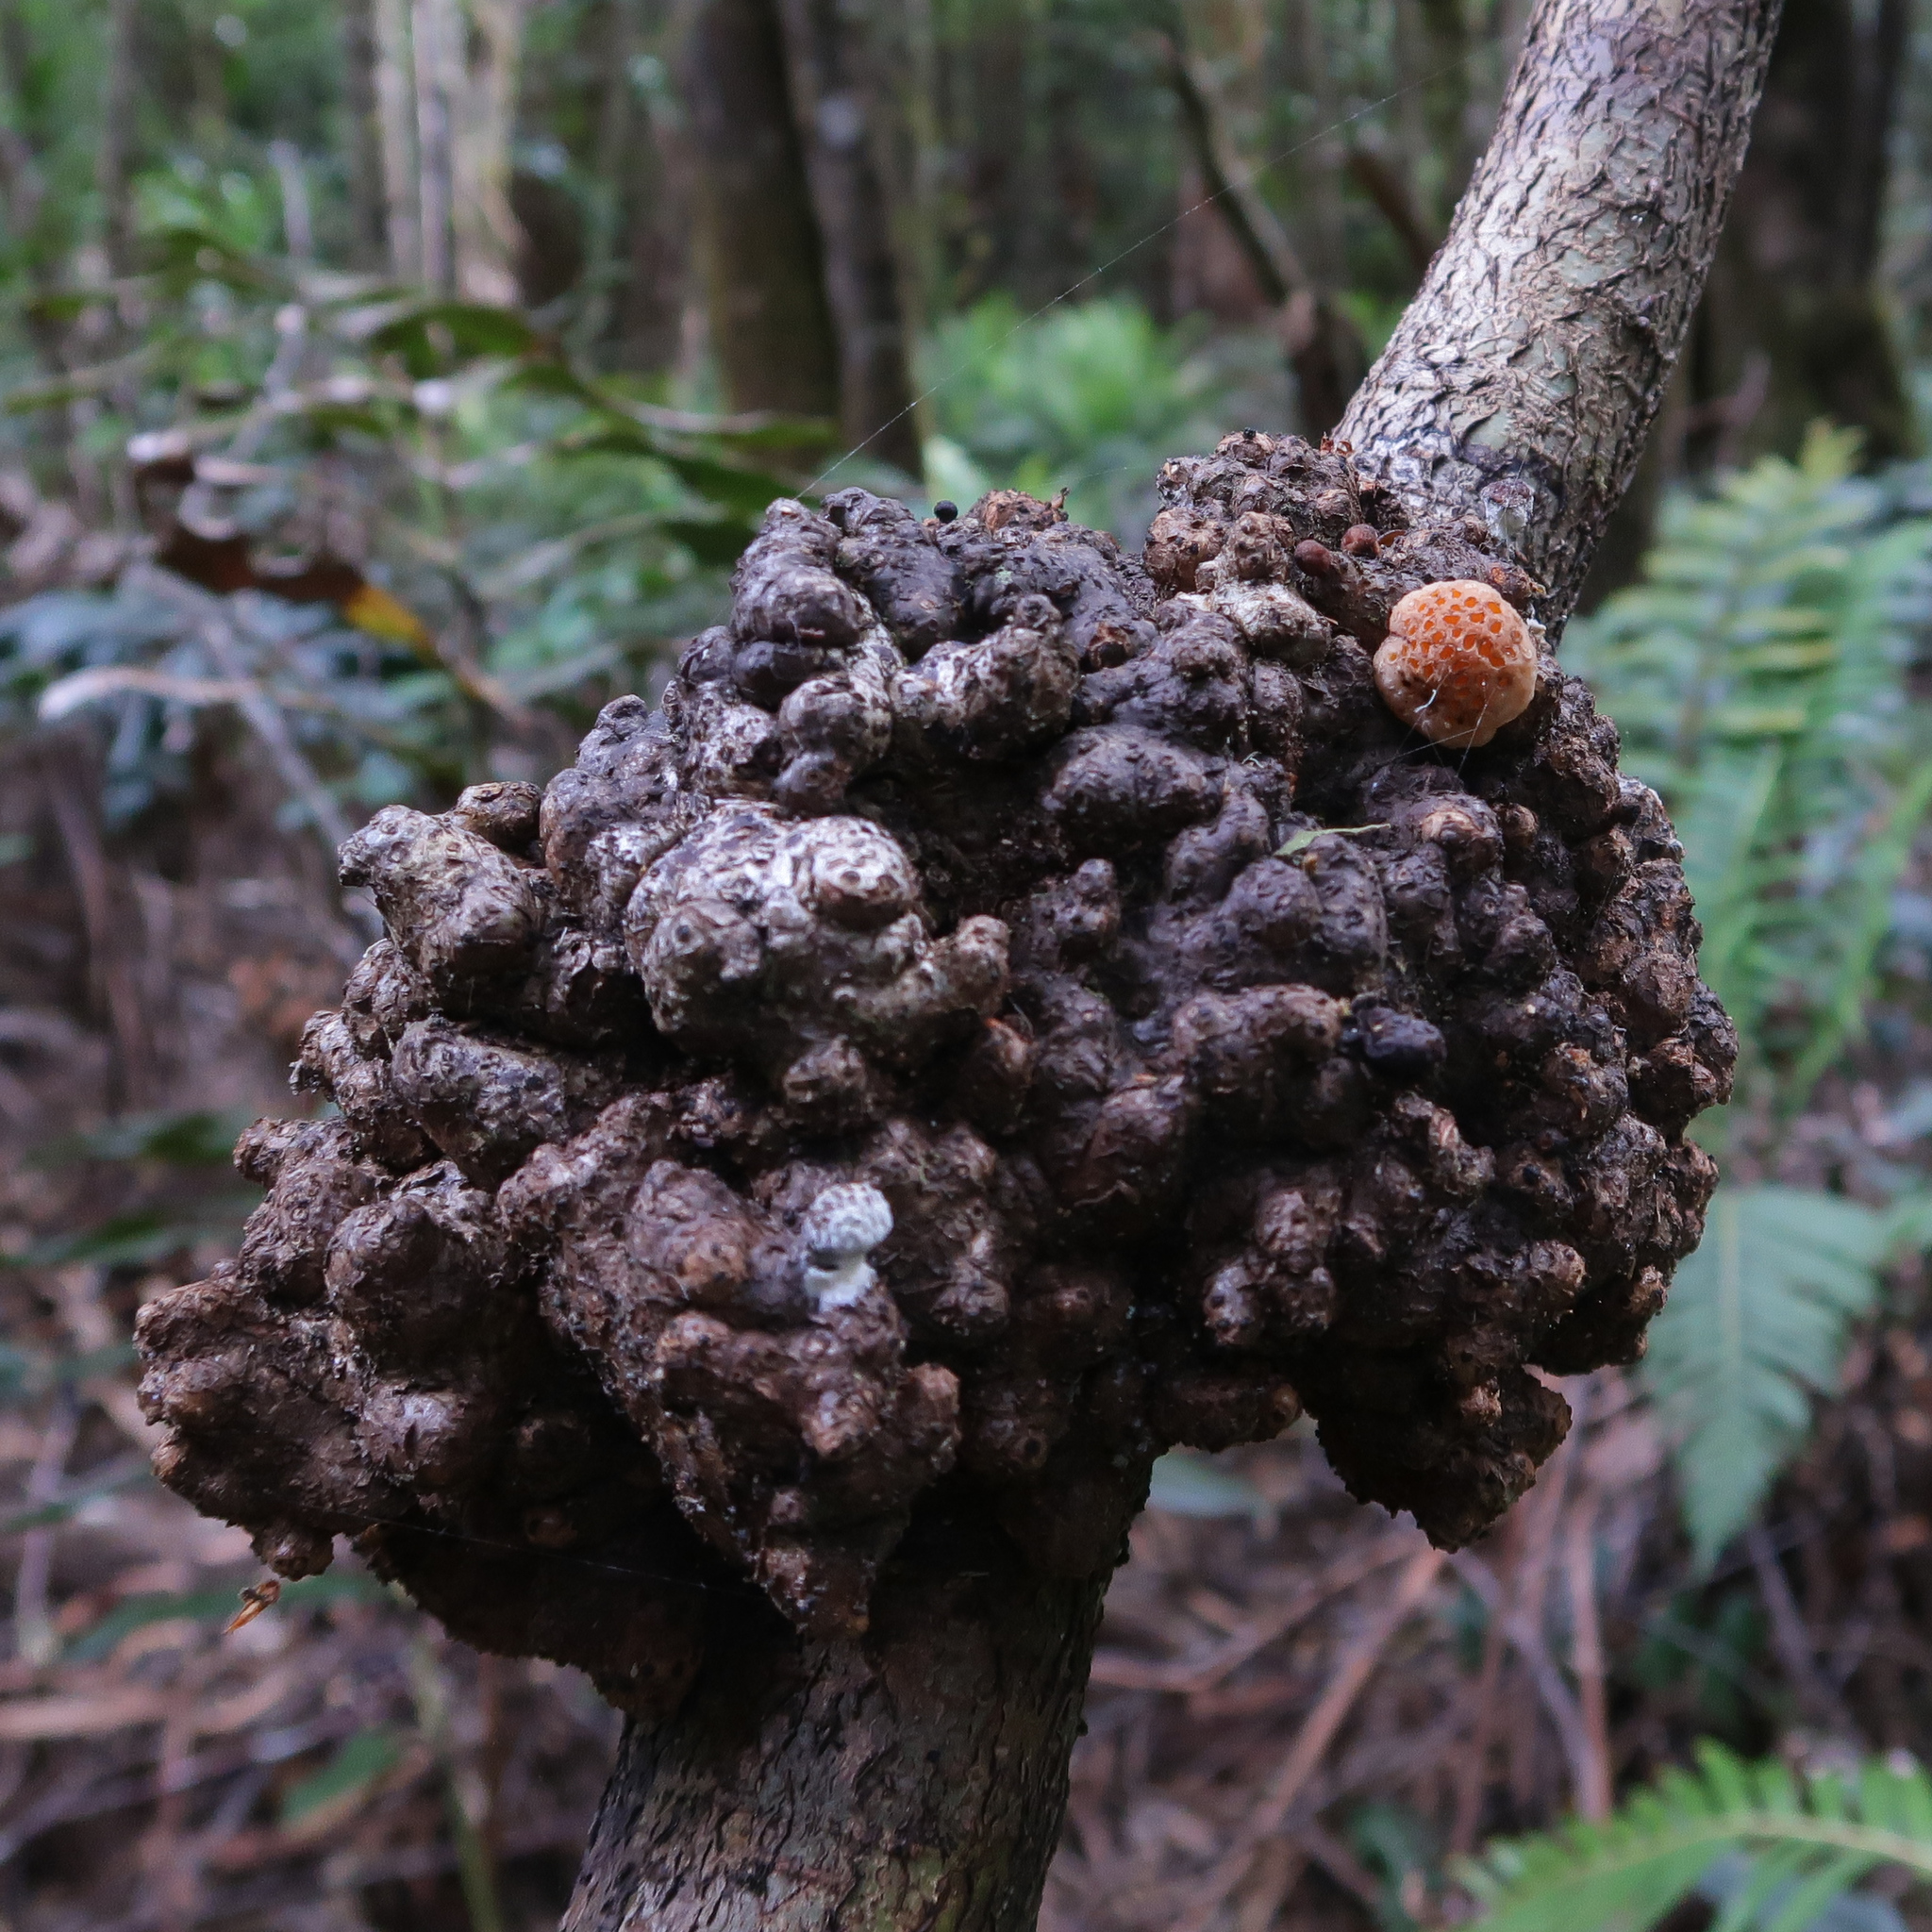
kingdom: Fungi
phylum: Ascomycota
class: Leotiomycetes
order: Cyttariales
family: Cyttariaceae
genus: Cyttaria
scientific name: Cyttaria gunnii
